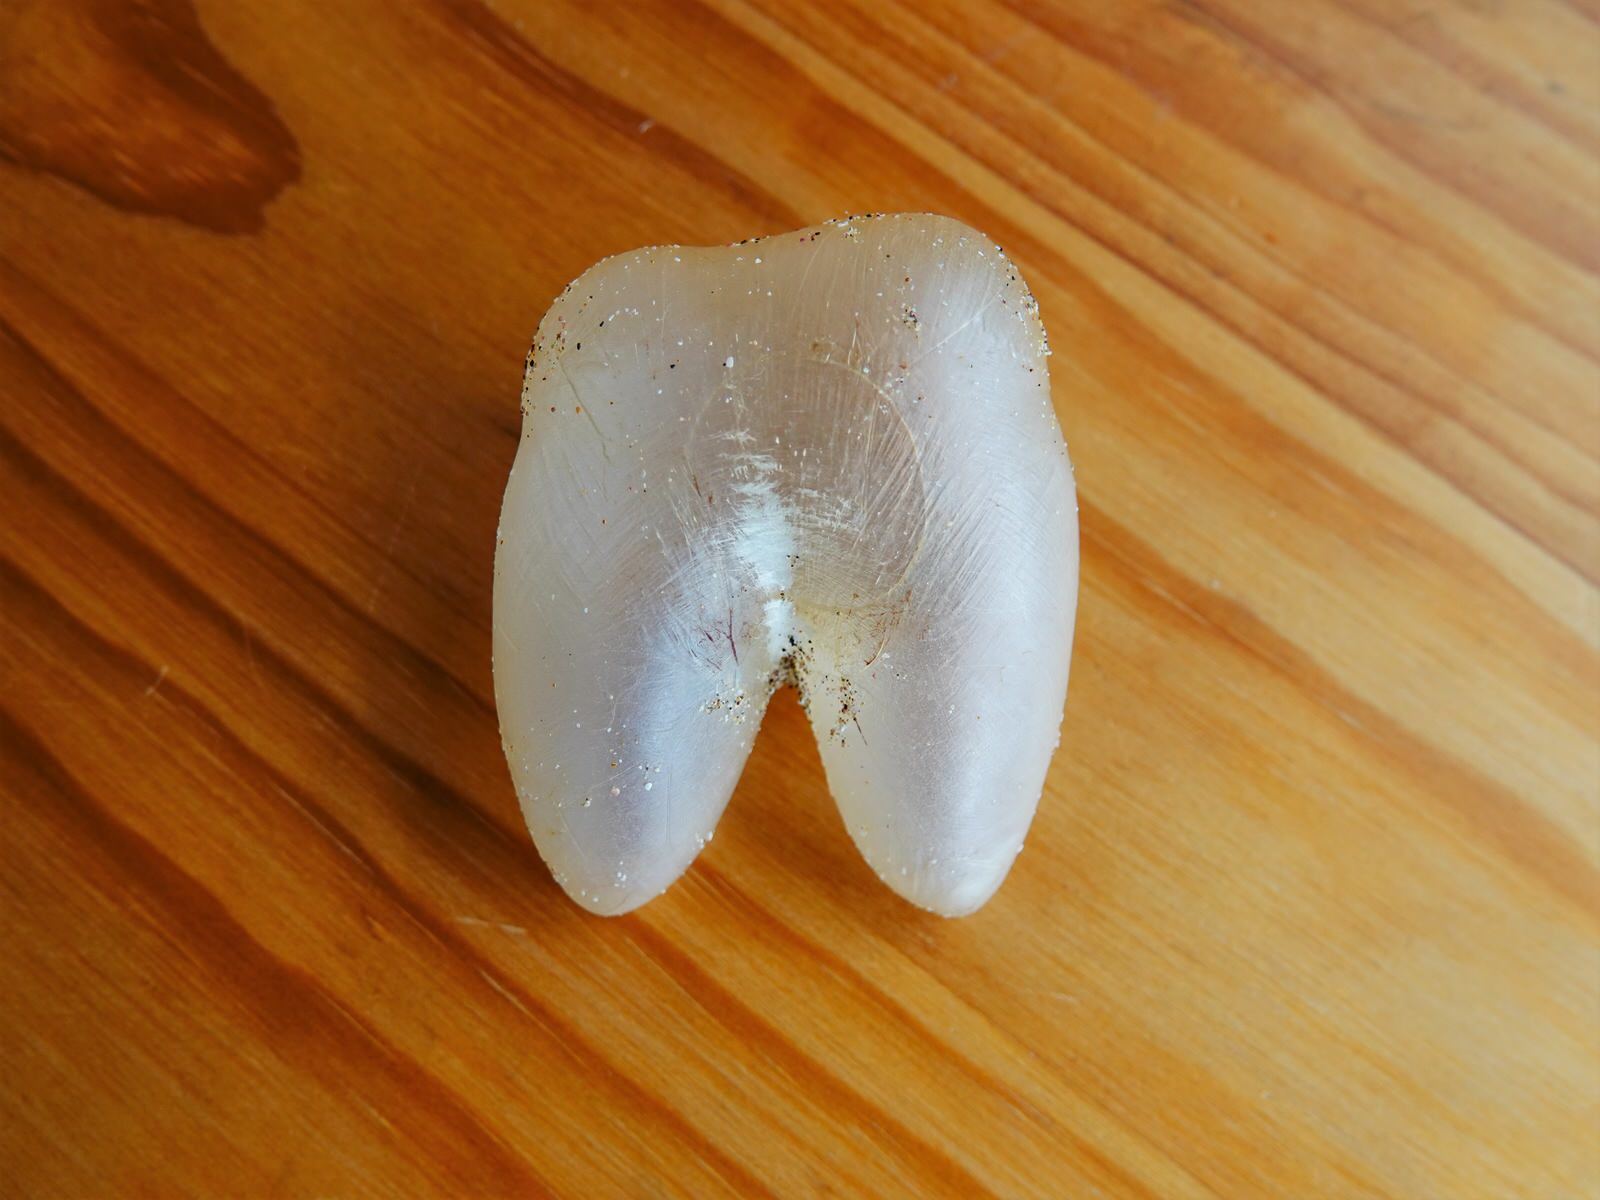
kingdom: Animalia
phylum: Chordata
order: Tetraodontiformes
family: Diodontidae
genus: Allomycterus
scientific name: Allomycterus pilatus
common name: No common name
